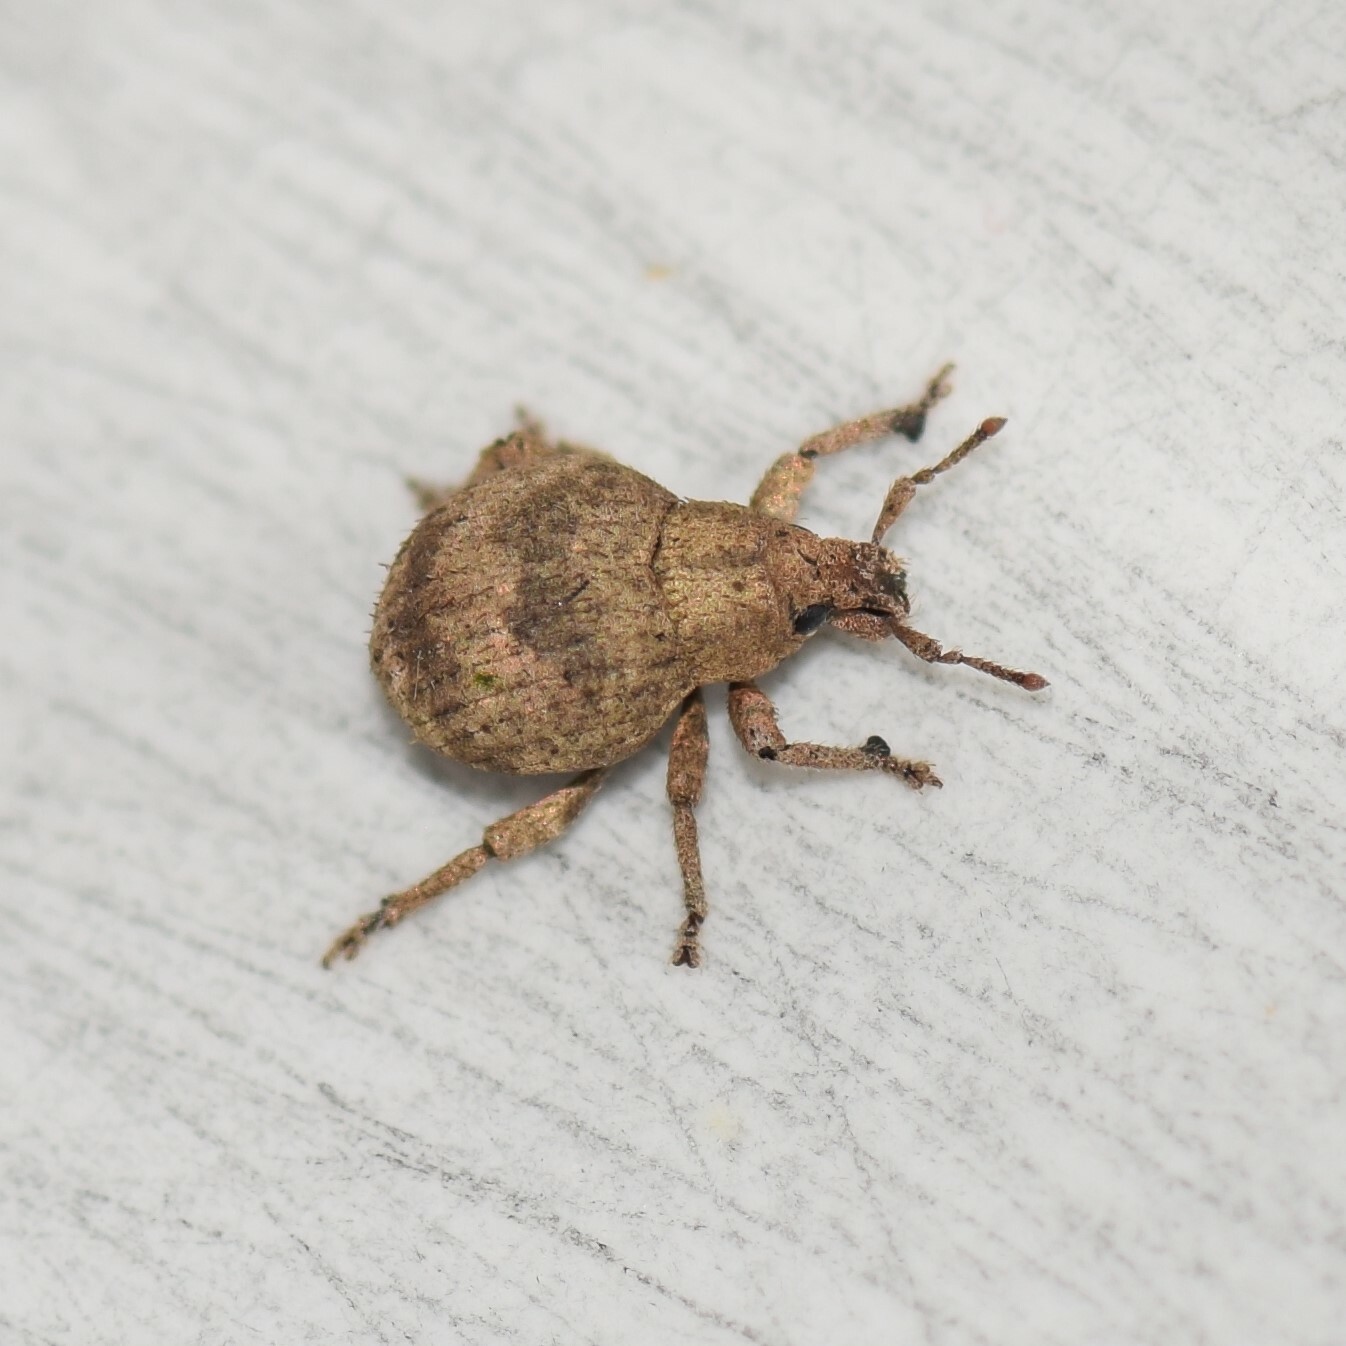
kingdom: Animalia
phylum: Arthropoda
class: Insecta
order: Coleoptera
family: Curculionidae
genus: Pseudocneorhinus
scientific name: Pseudocneorhinus bifasciatus
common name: Two-banded japanese weevil
